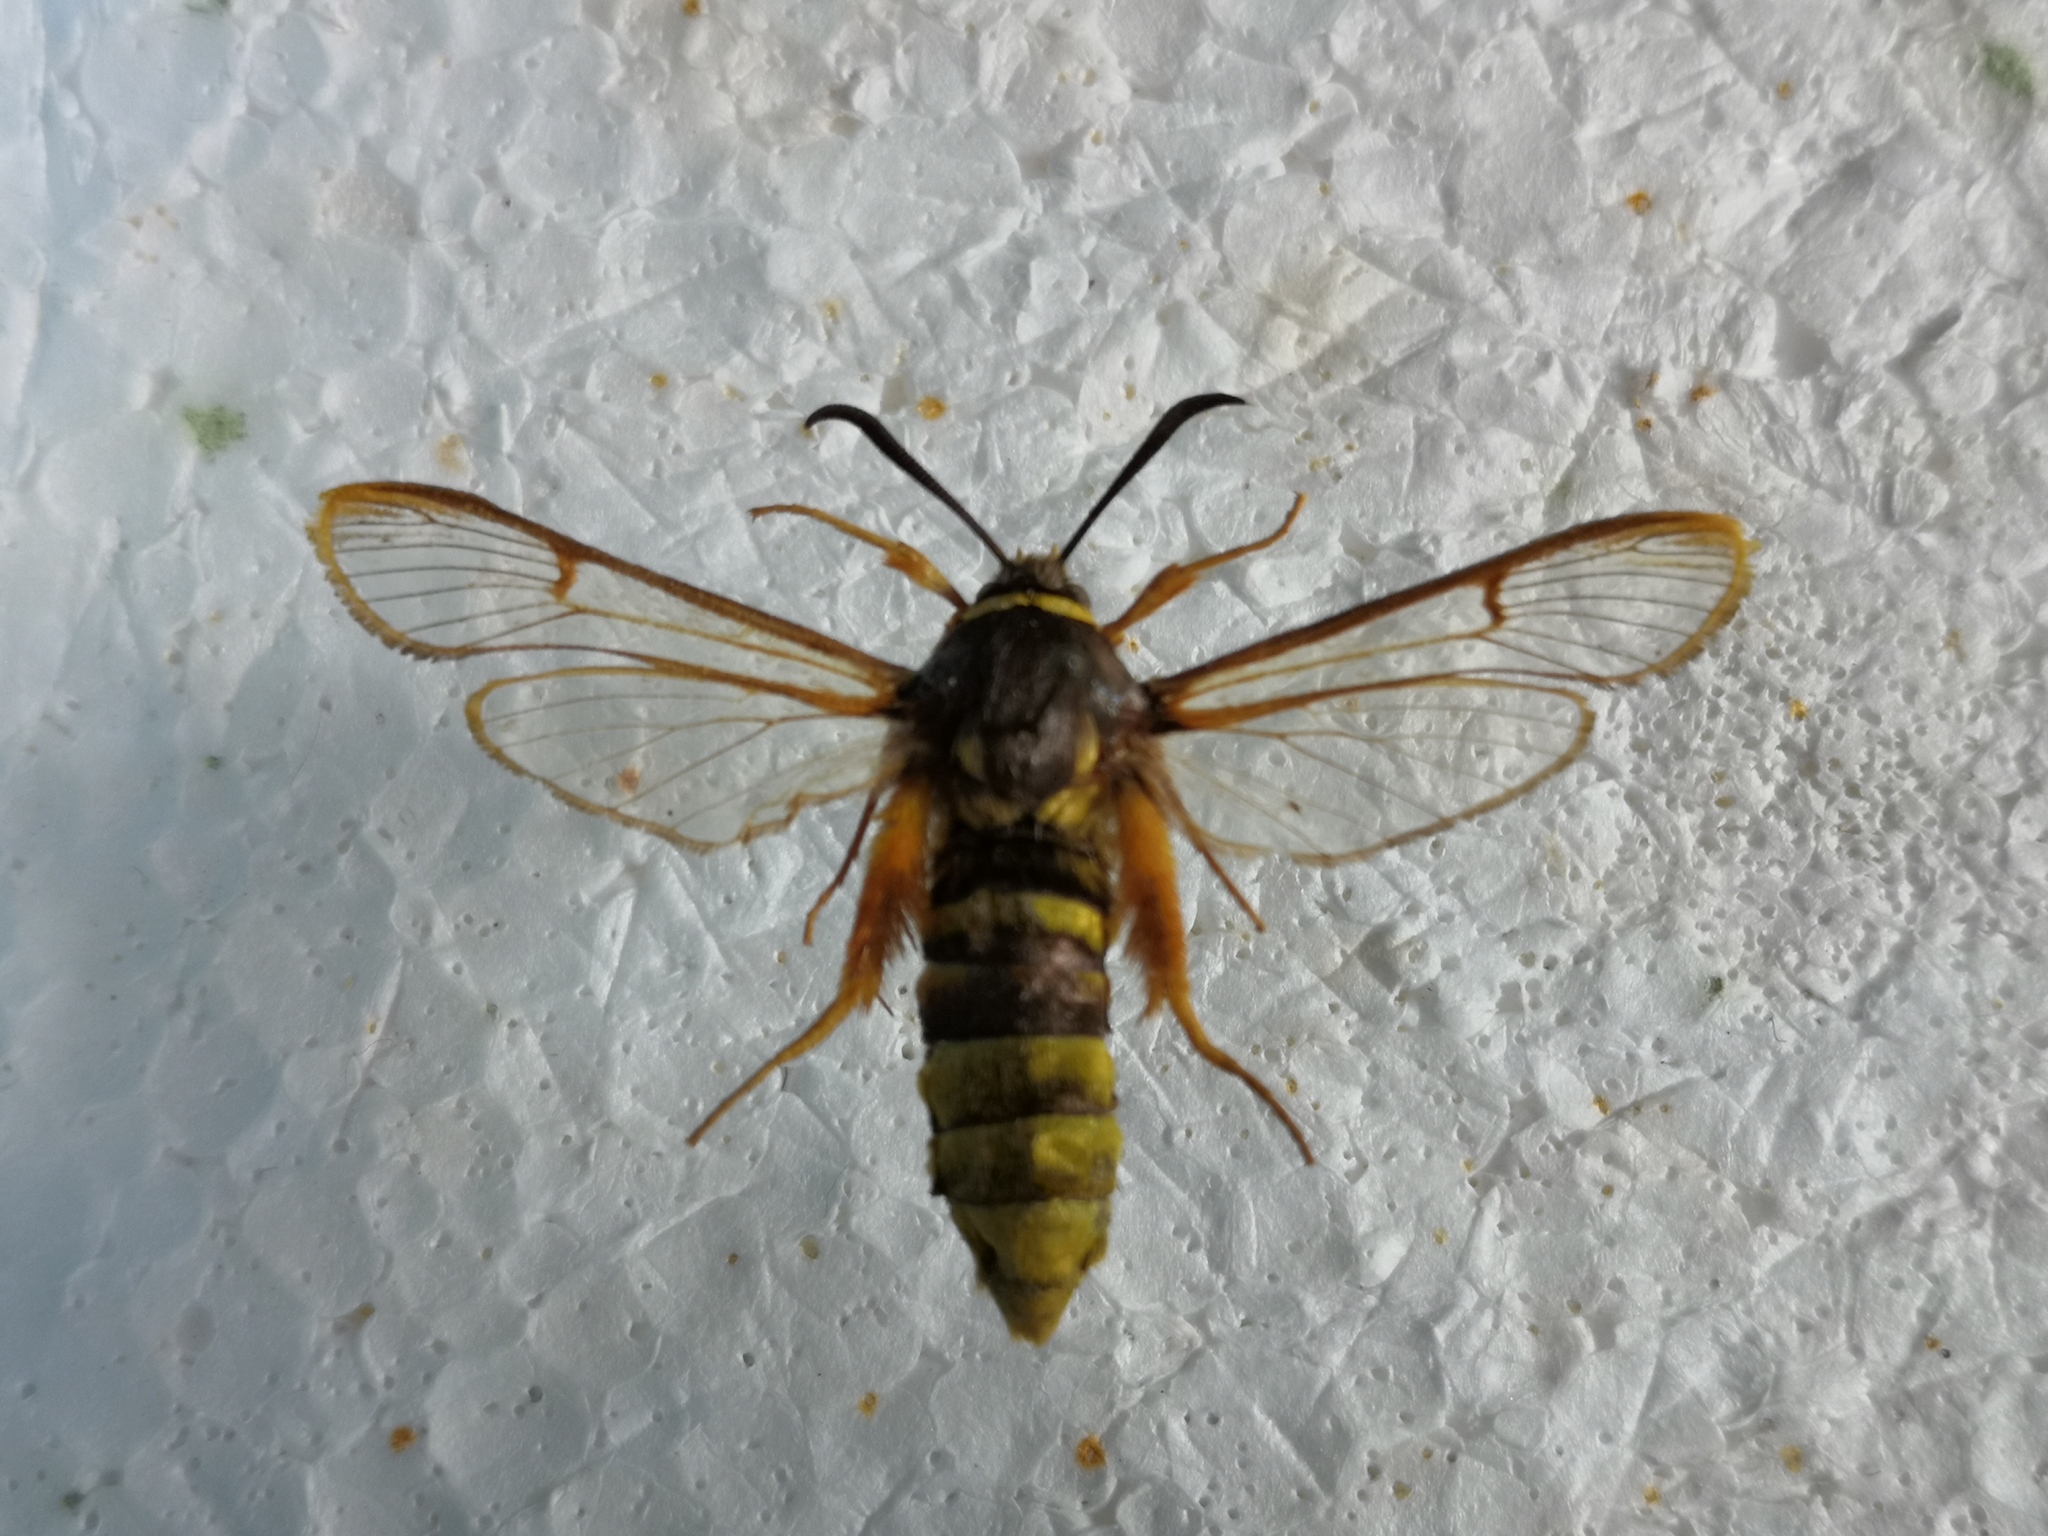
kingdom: Animalia
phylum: Arthropoda
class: Insecta
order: Lepidoptera
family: Sesiidae
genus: Sesia
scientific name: Sesia bembeciformis
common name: Lunar hornet moth
